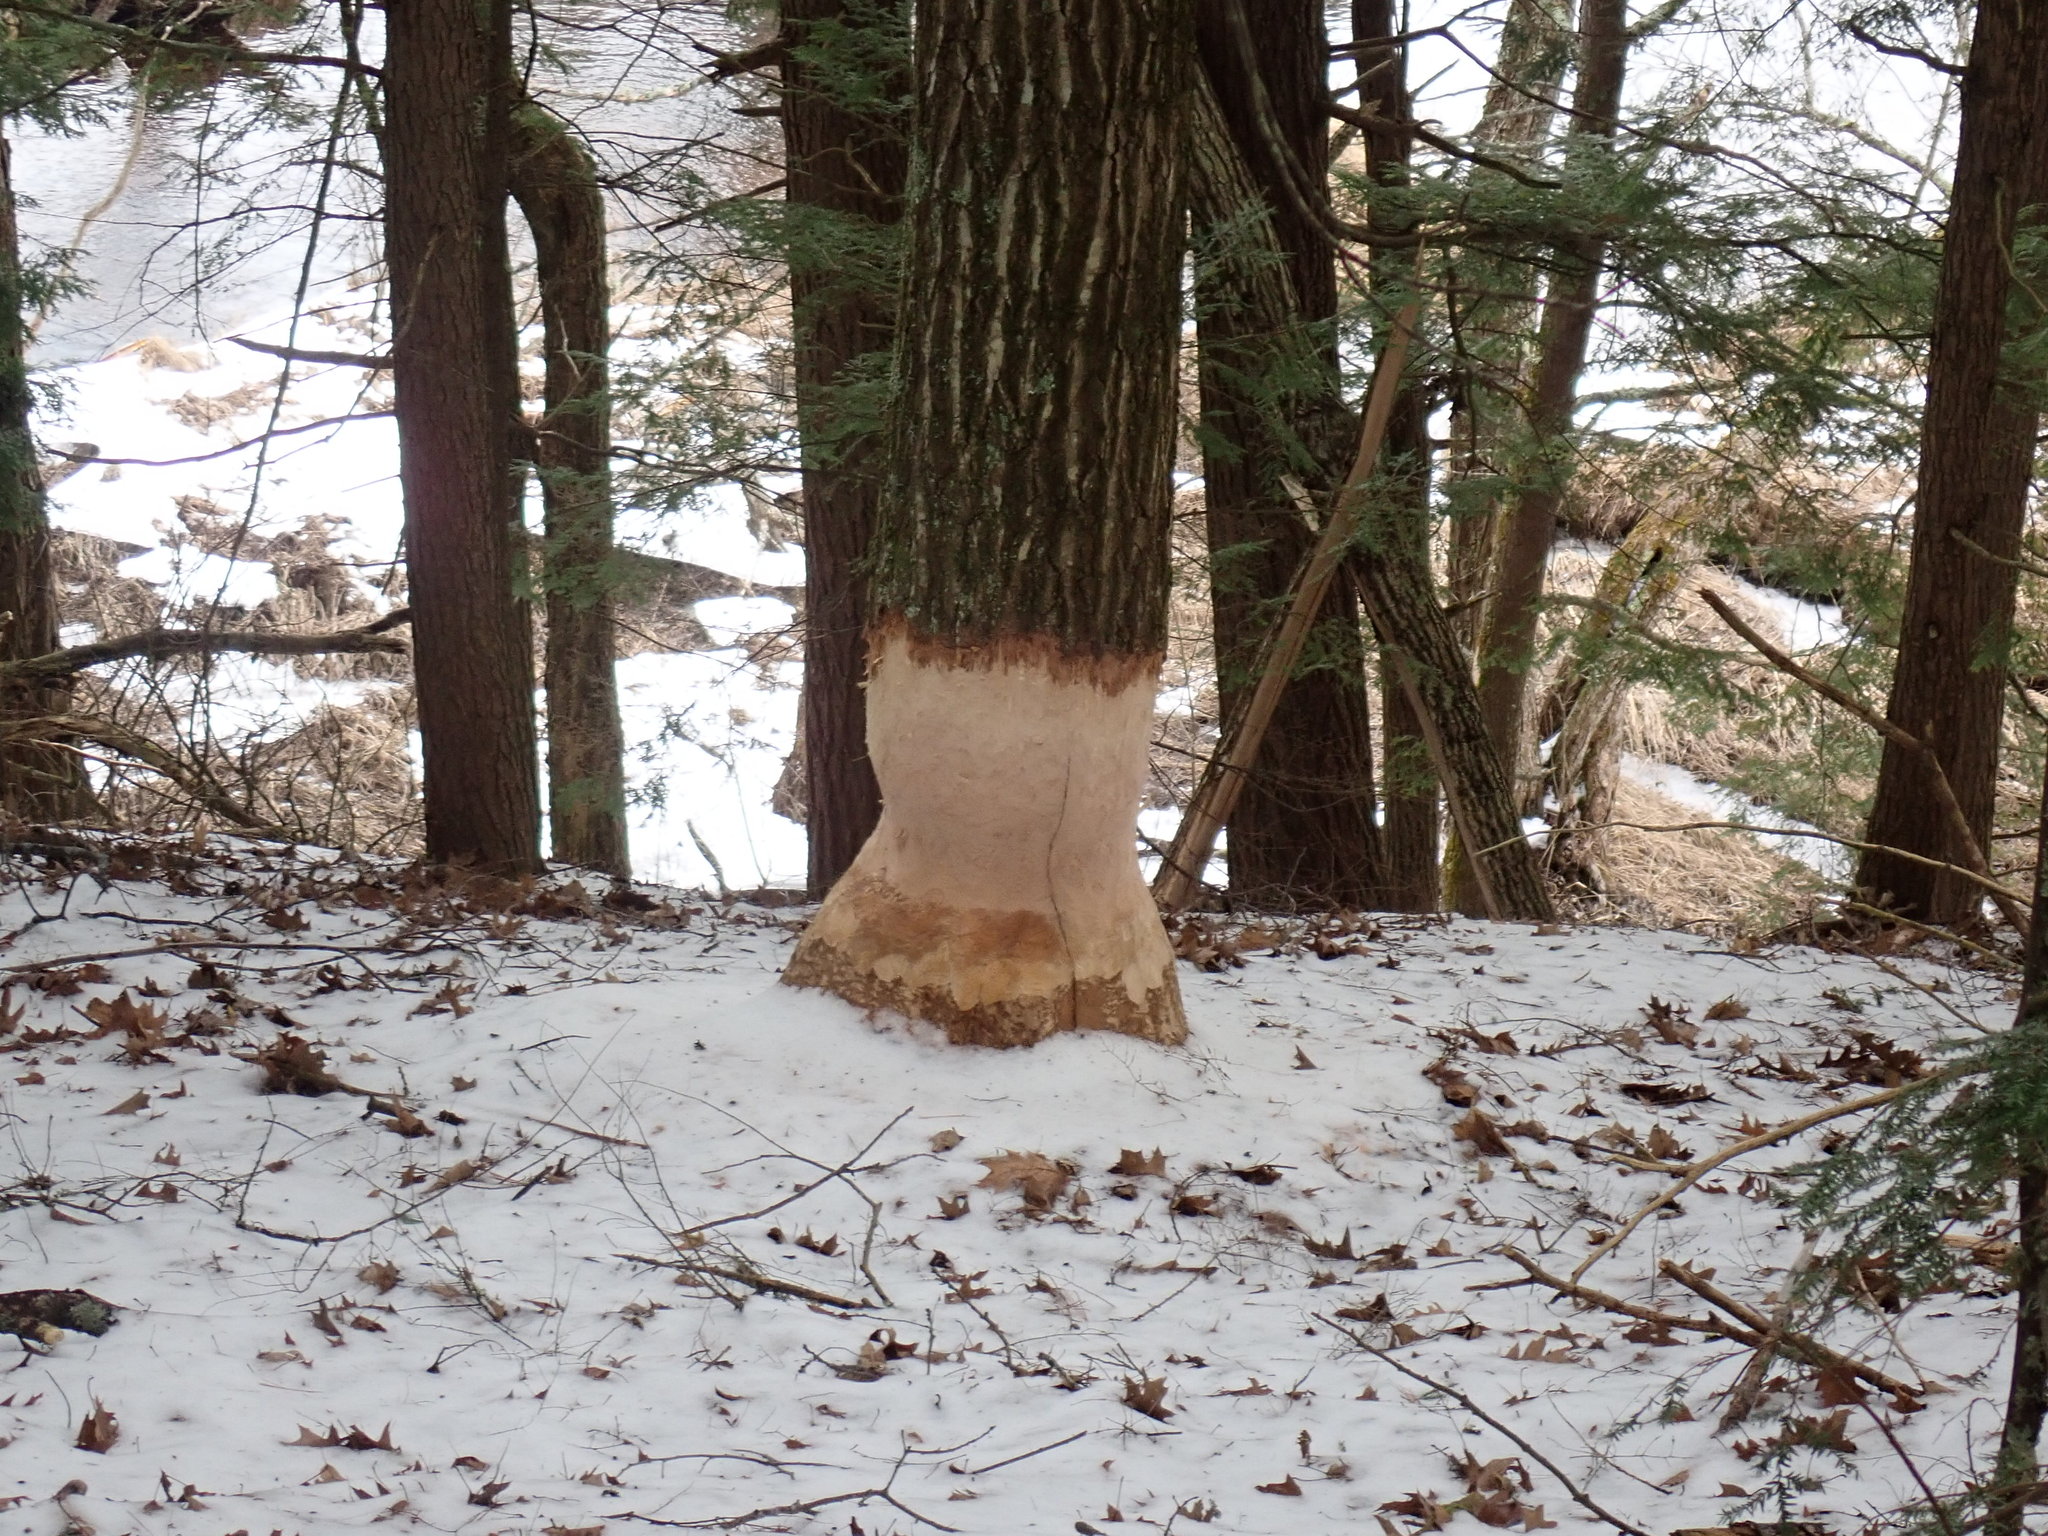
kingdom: Animalia
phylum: Chordata
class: Mammalia
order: Rodentia
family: Castoridae
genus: Castor
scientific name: Castor canadensis
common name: American beaver
